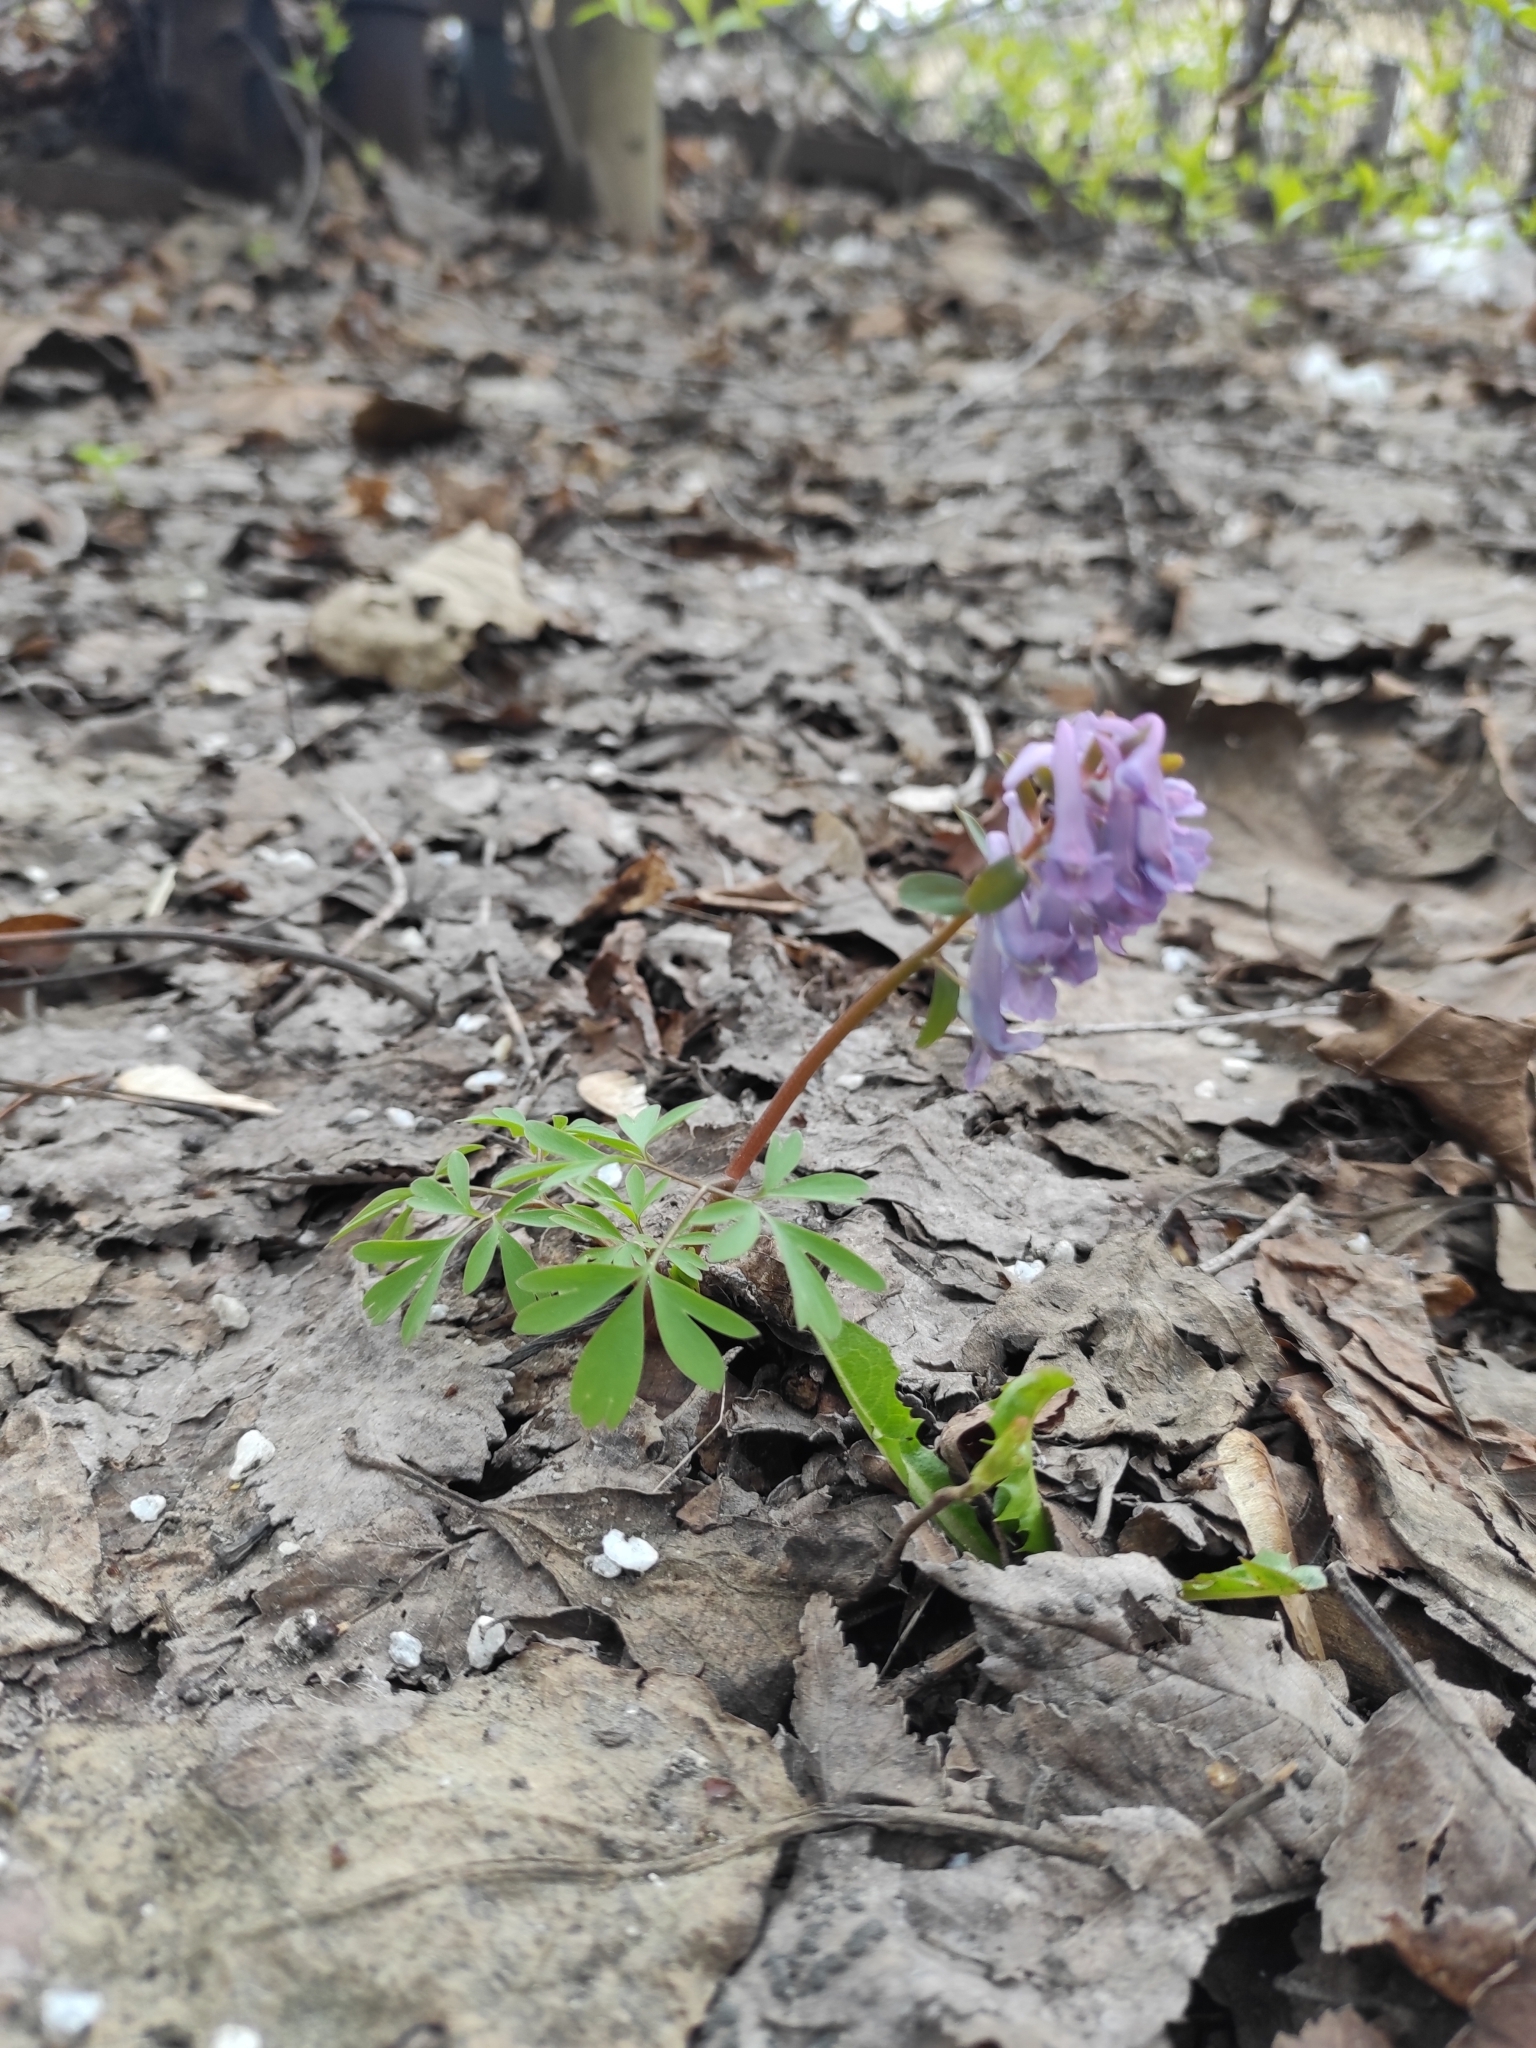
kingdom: Plantae
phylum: Tracheophyta
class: Magnoliopsida
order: Ranunculales
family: Papaveraceae
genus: Corydalis
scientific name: Corydalis solida
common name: Bird-in-a-bush
